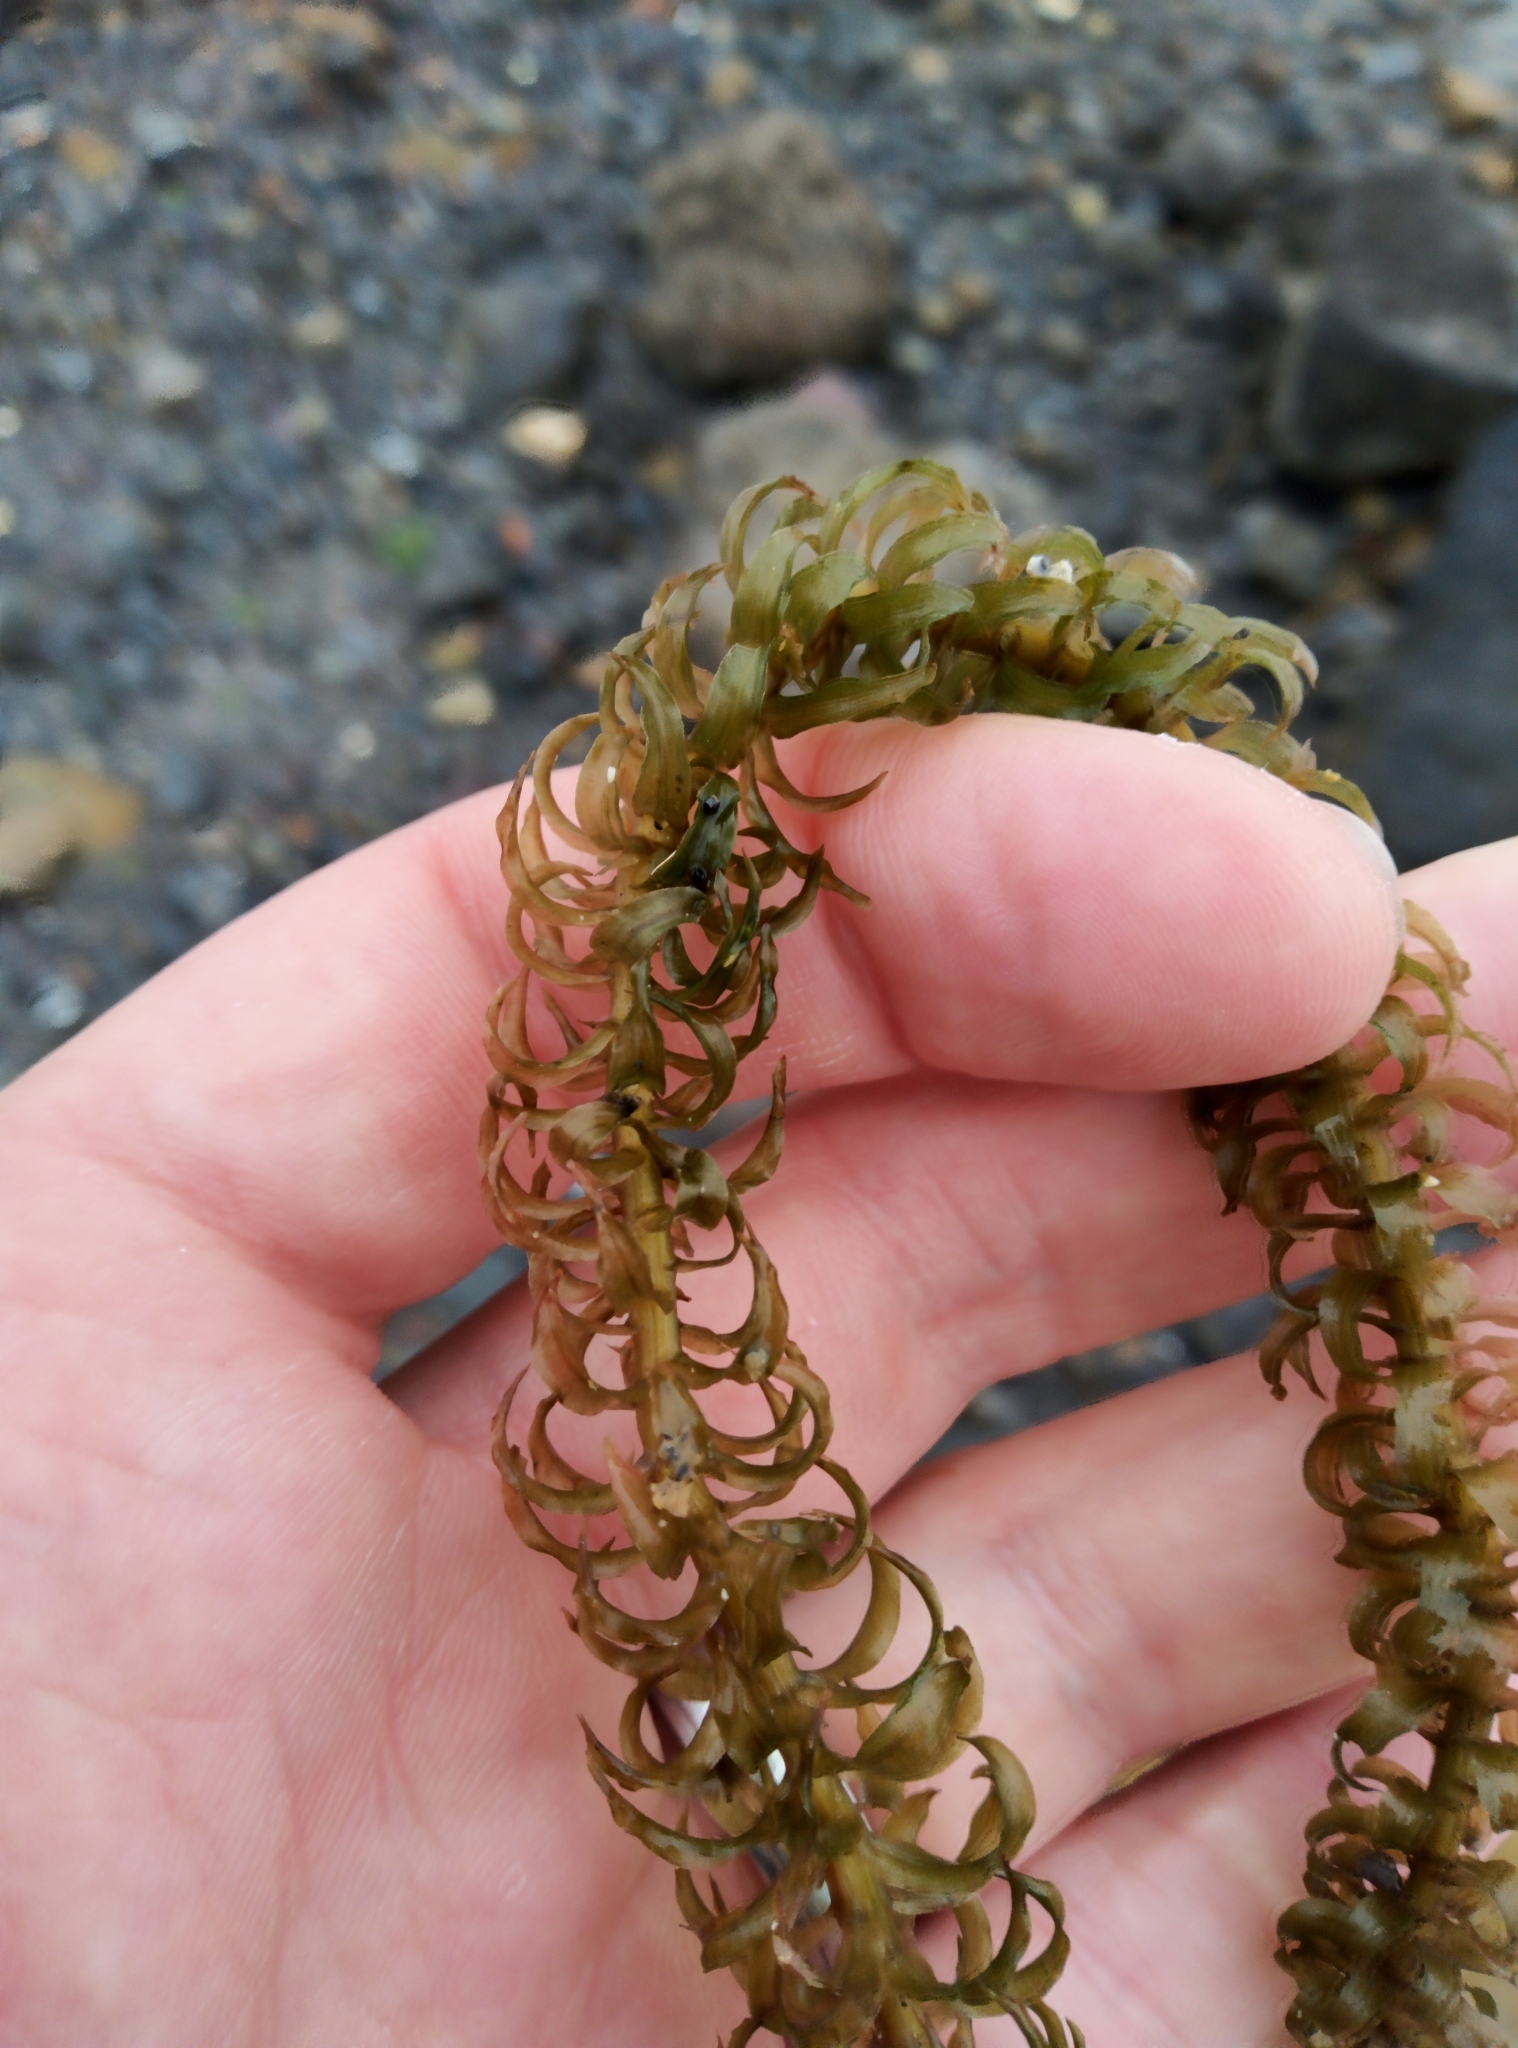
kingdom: Plantae
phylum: Tracheophyta
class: Liliopsida
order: Alismatales
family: Hydrocharitaceae
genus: Lagarosiphon
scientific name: Lagarosiphon major
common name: Curly waterweed
